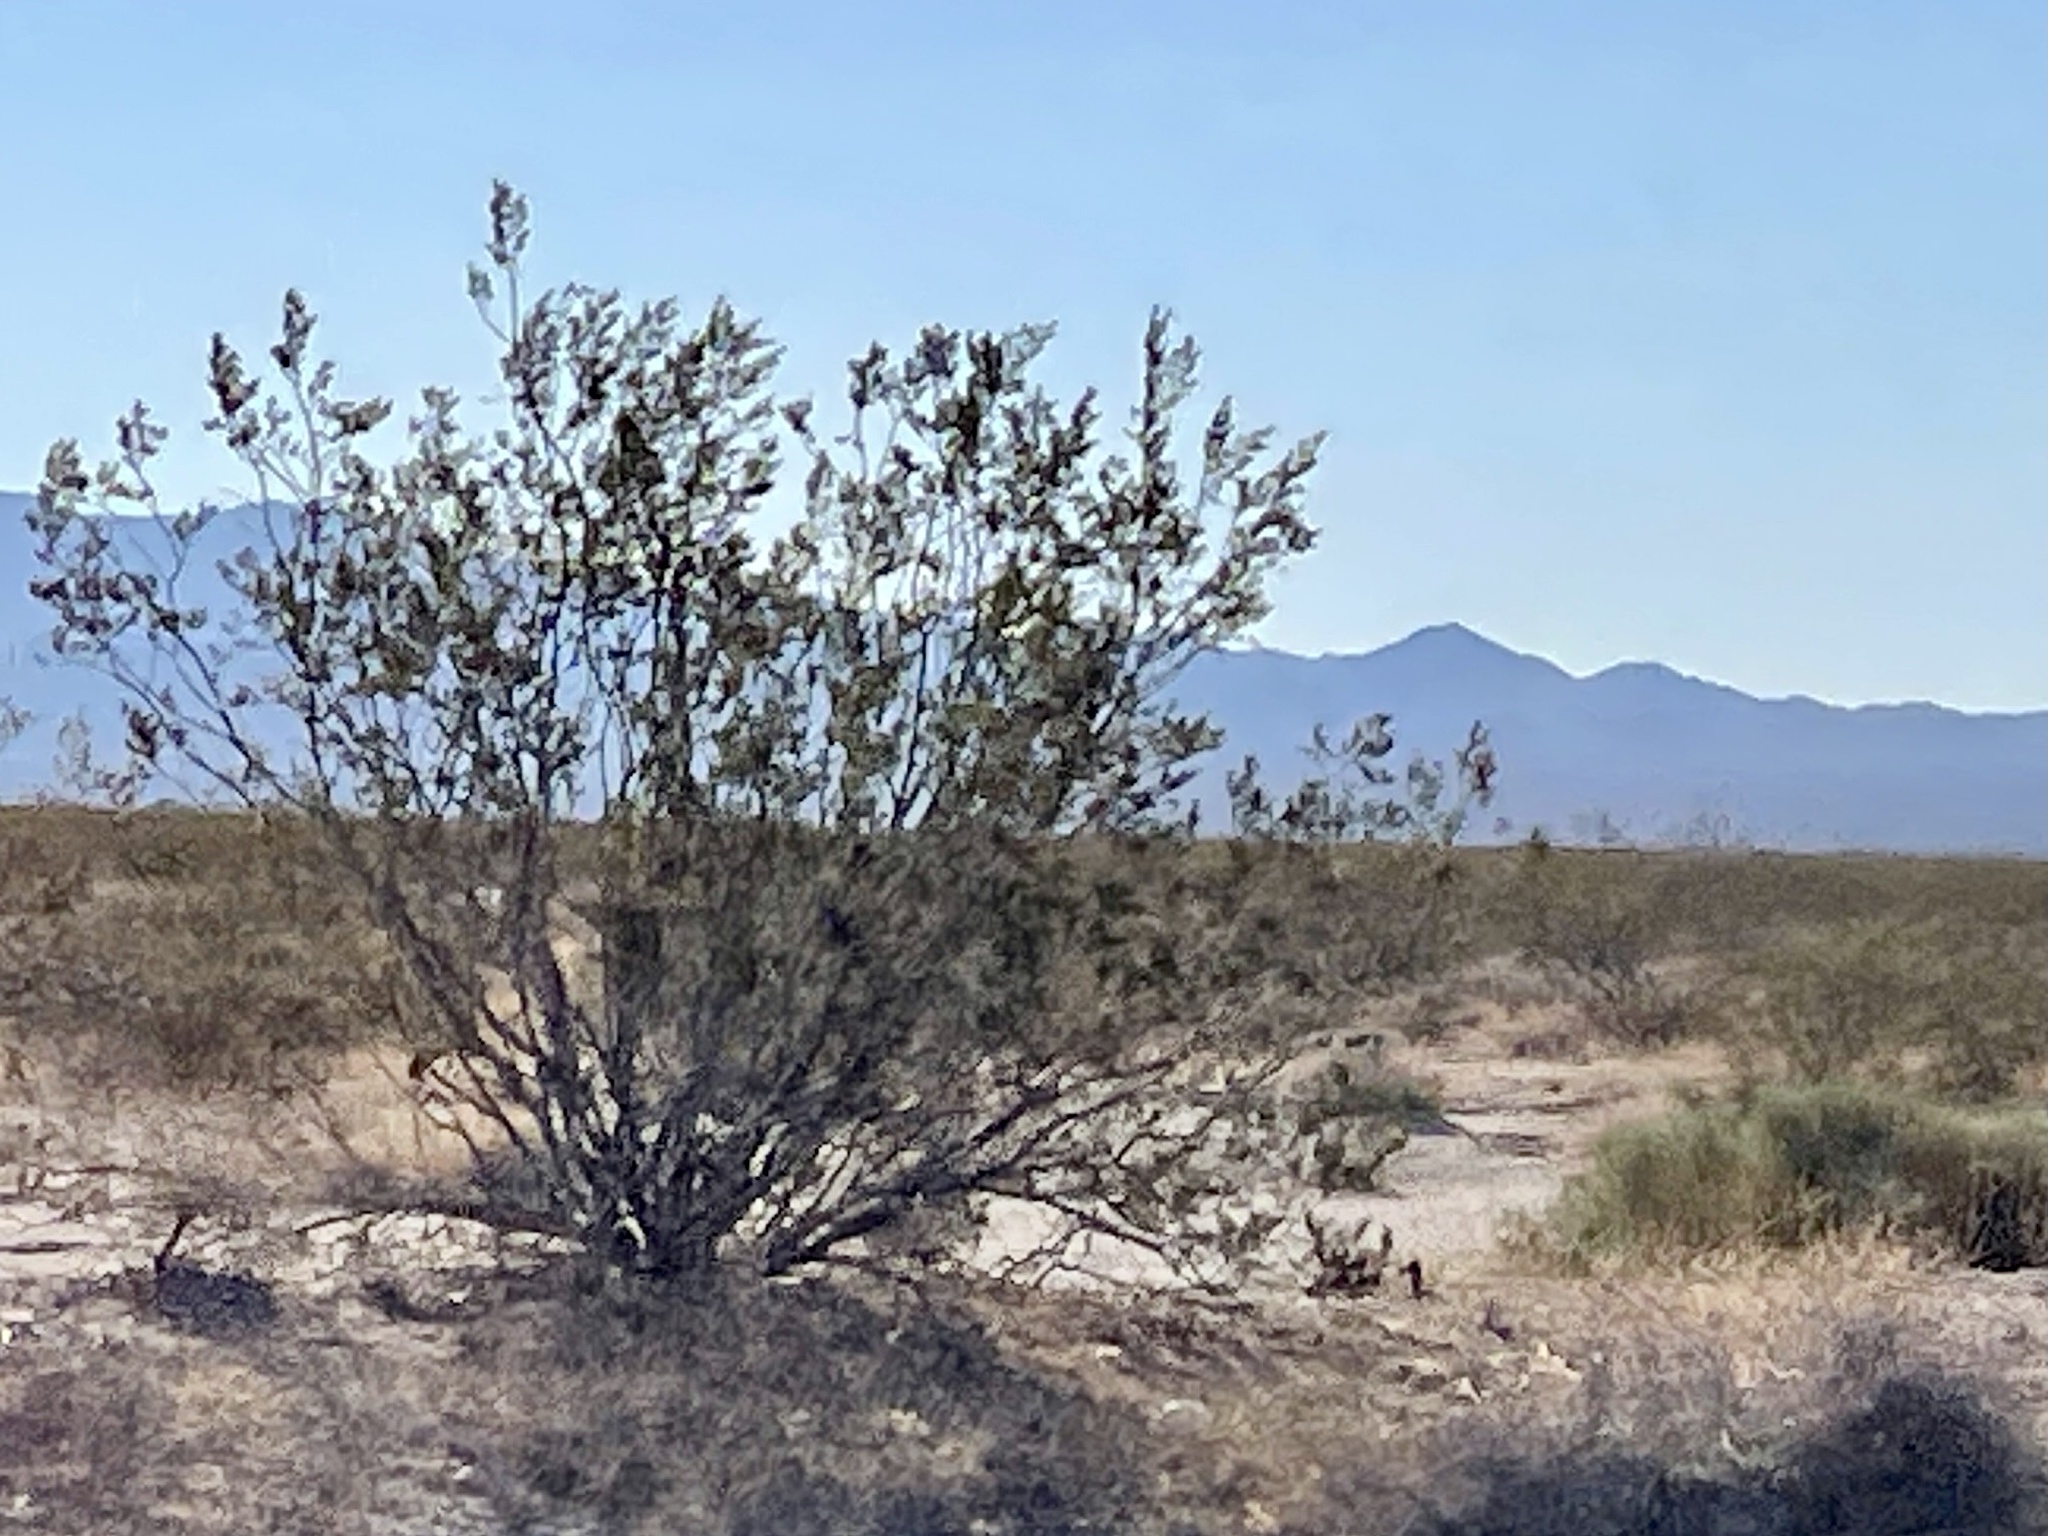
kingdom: Plantae
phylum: Tracheophyta
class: Magnoliopsida
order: Zygophyllales
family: Zygophyllaceae
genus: Larrea
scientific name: Larrea tridentata
